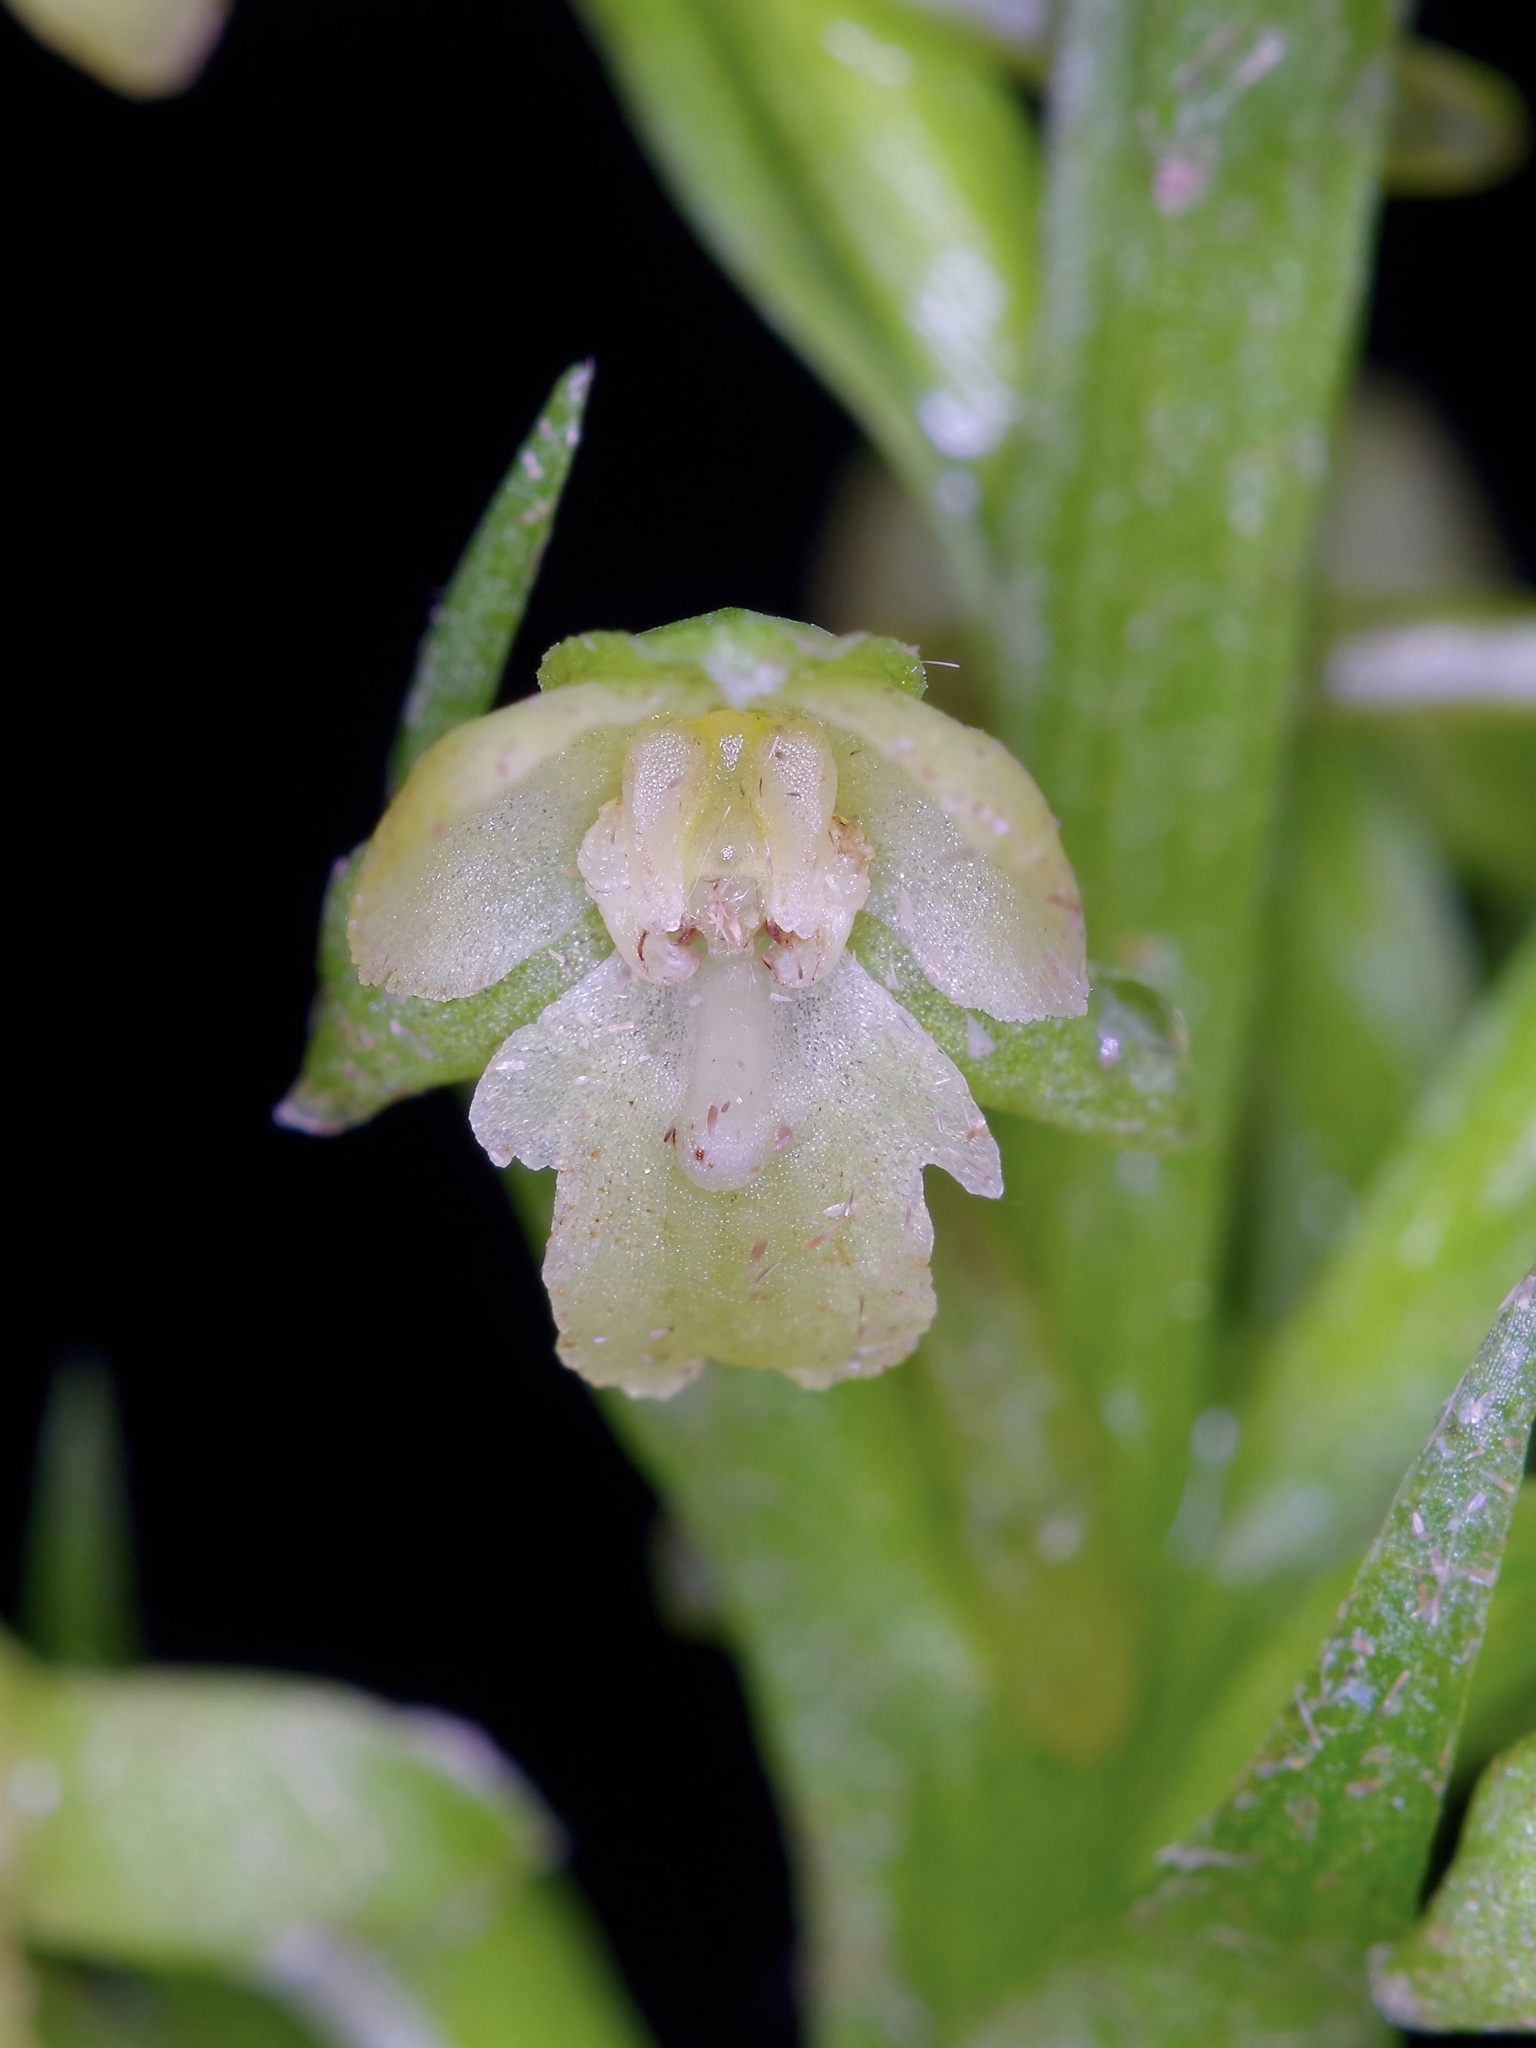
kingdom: Plantae
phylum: Tracheophyta
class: Liliopsida
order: Asparagales
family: Orchidaceae
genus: Platanthera
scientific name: Platanthera flava
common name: Gypsy-spikes
